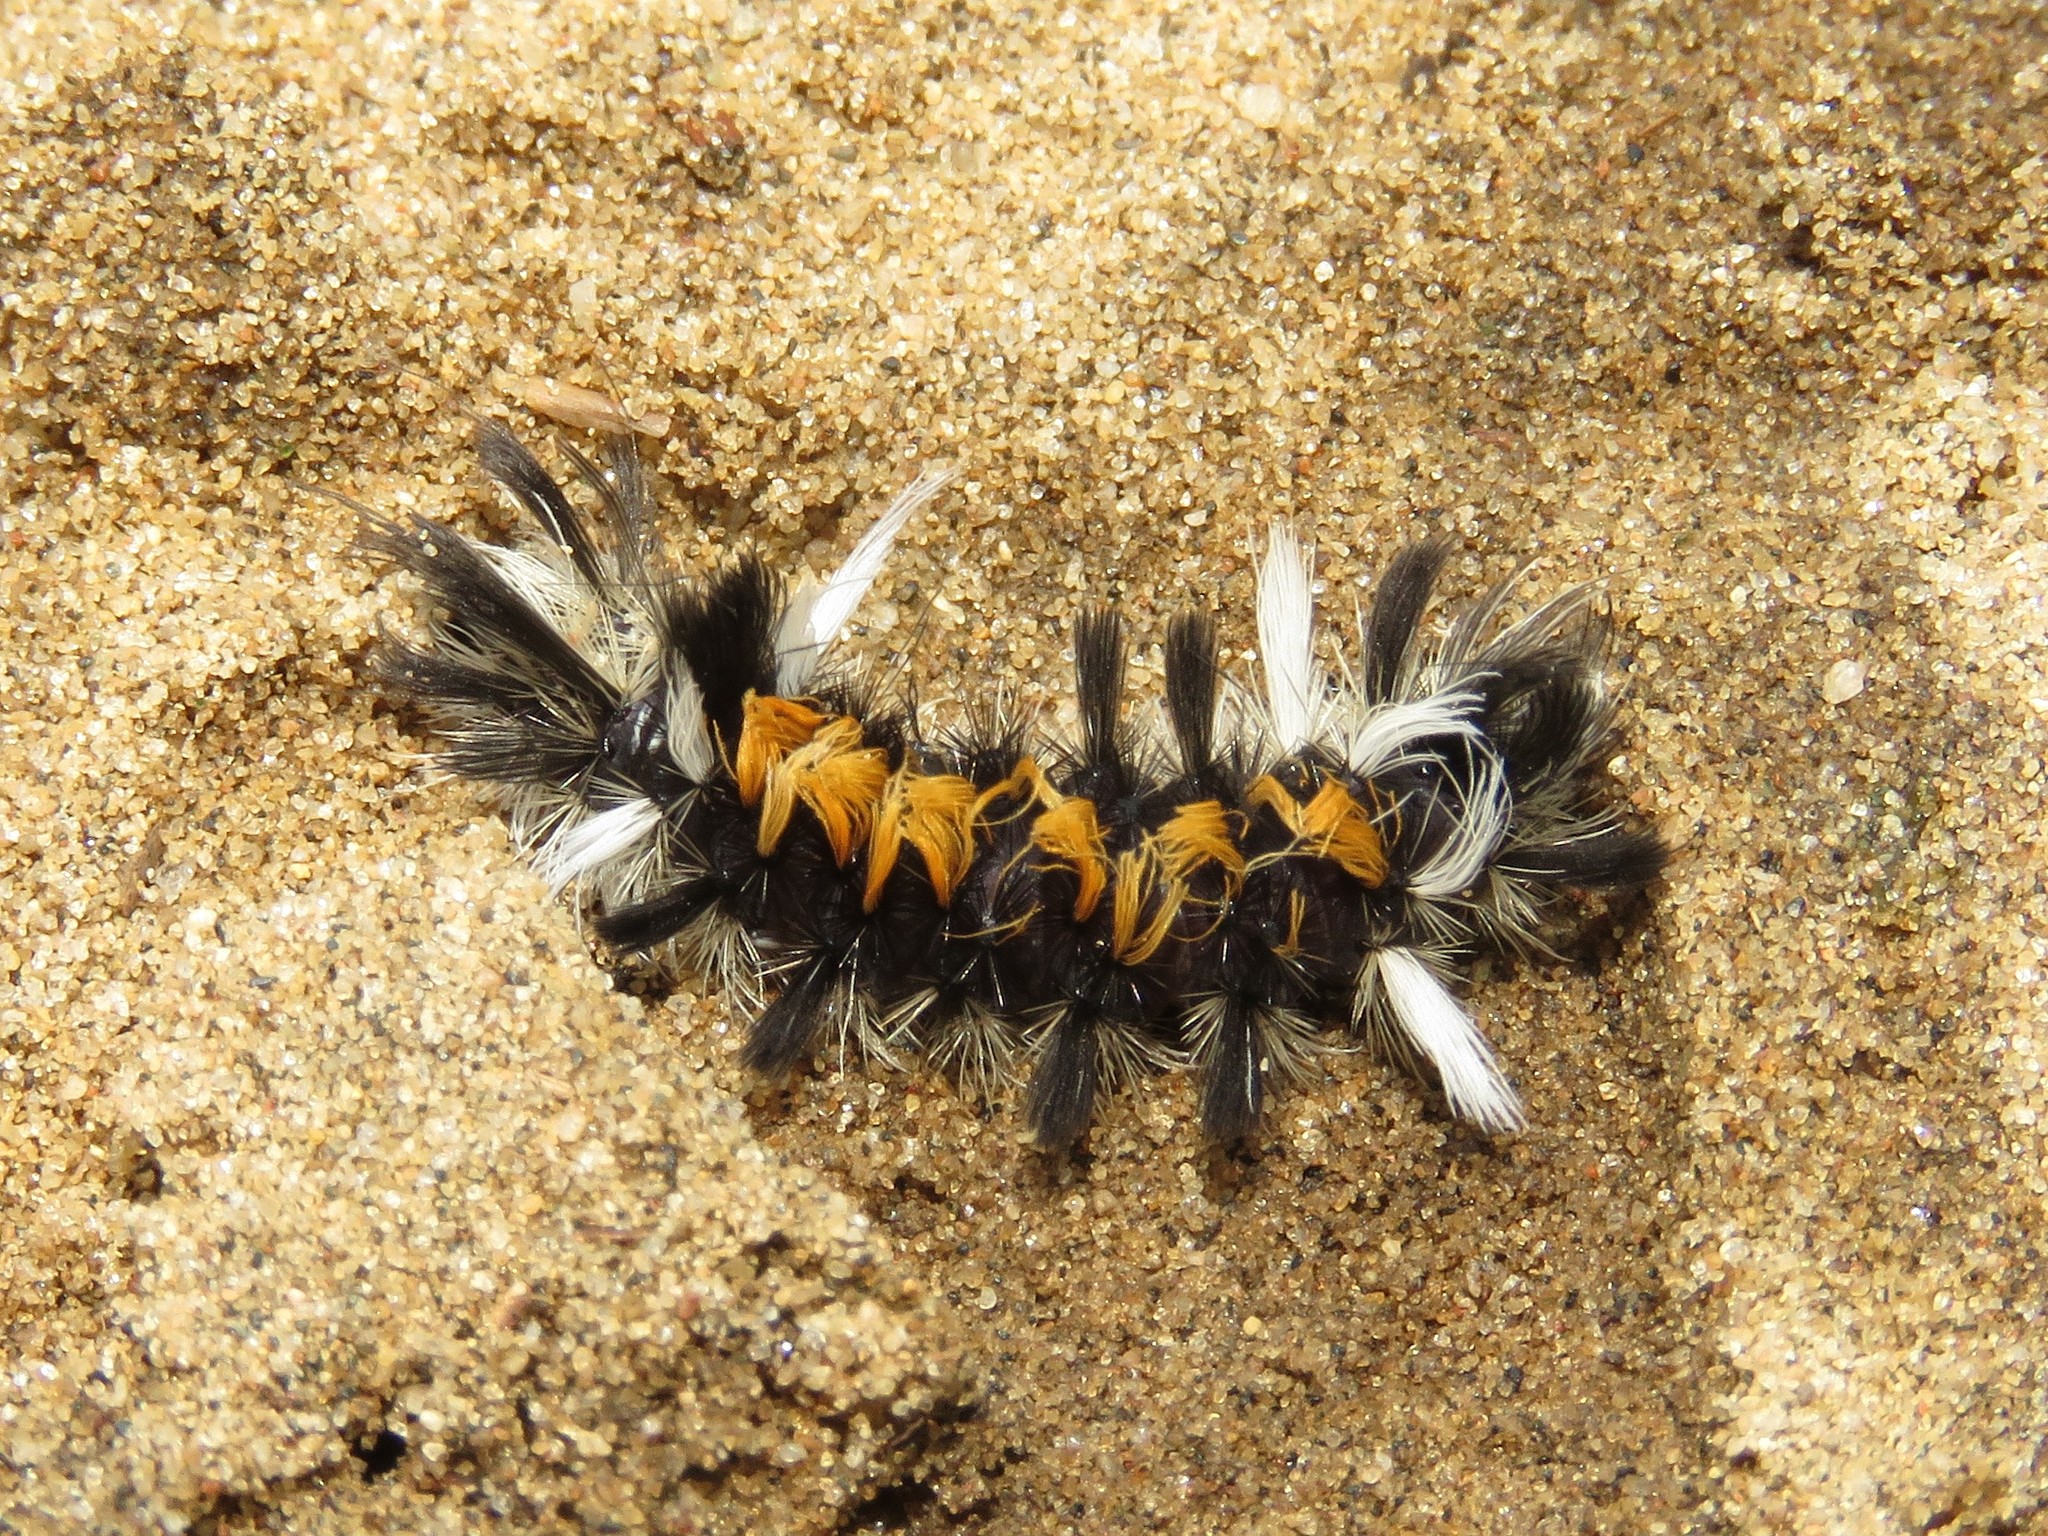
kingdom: Animalia
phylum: Arthropoda
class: Insecta
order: Lepidoptera
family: Erebidae
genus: Euchaetes
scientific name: Euchaetes egle
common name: Milkweed tussock moth
